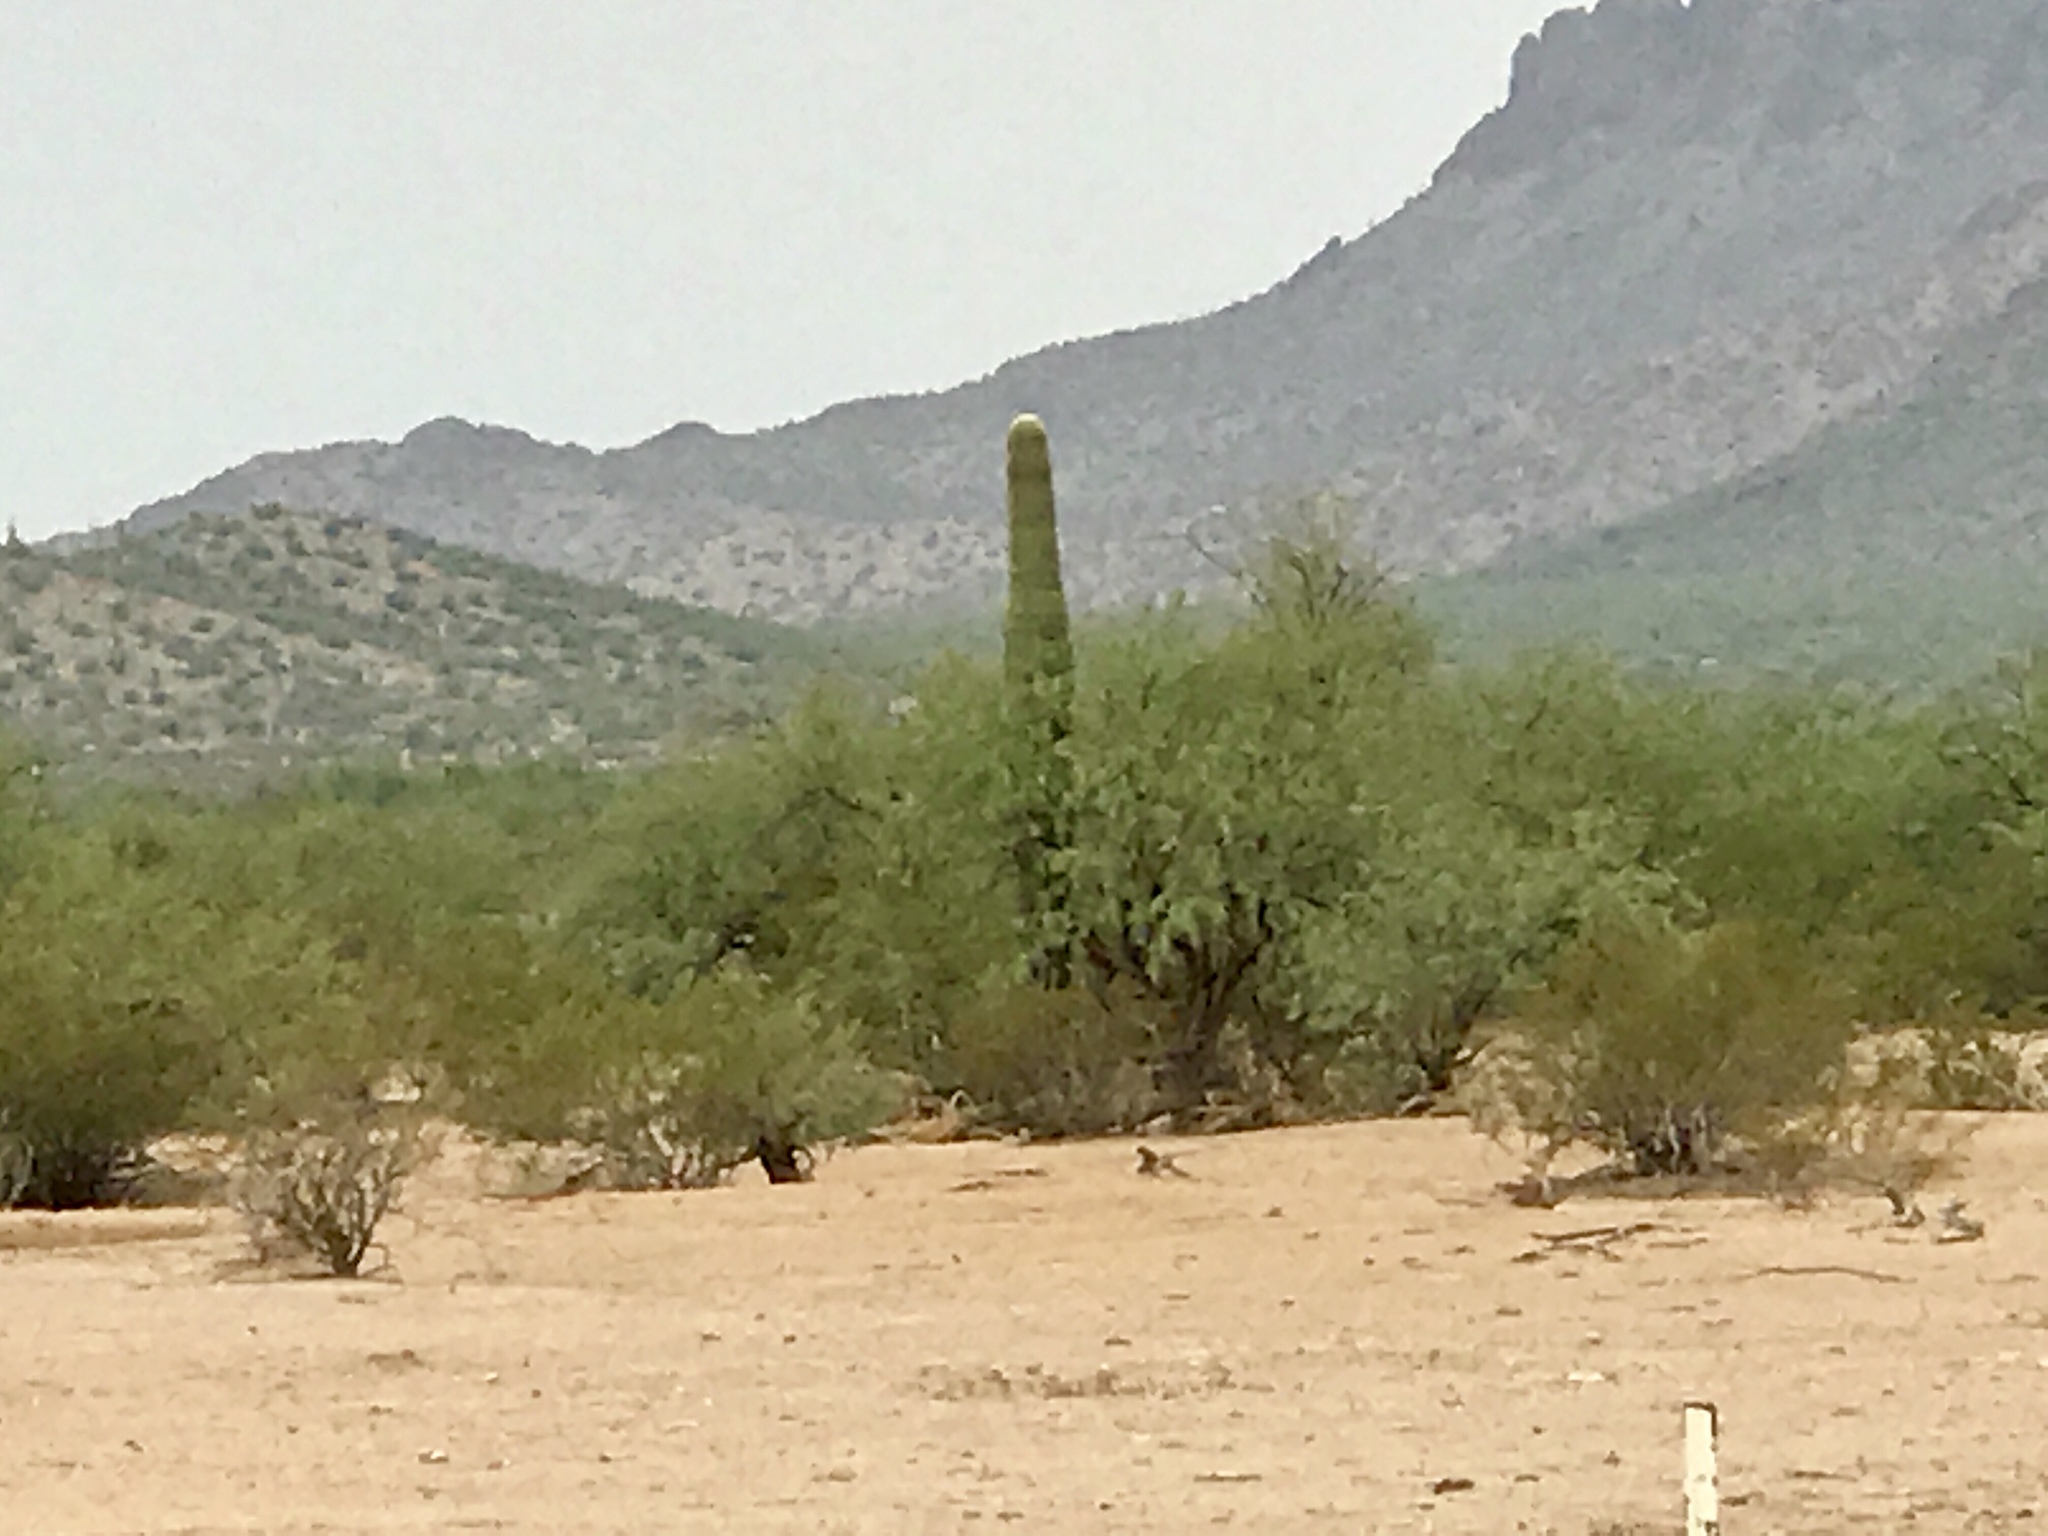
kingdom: Plantae
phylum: Tracheophyta
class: Magnoliopsida
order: Caryophyllales
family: Cactaceae
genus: Carnegiea
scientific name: Carnegiea gigantea
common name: Saguaro
